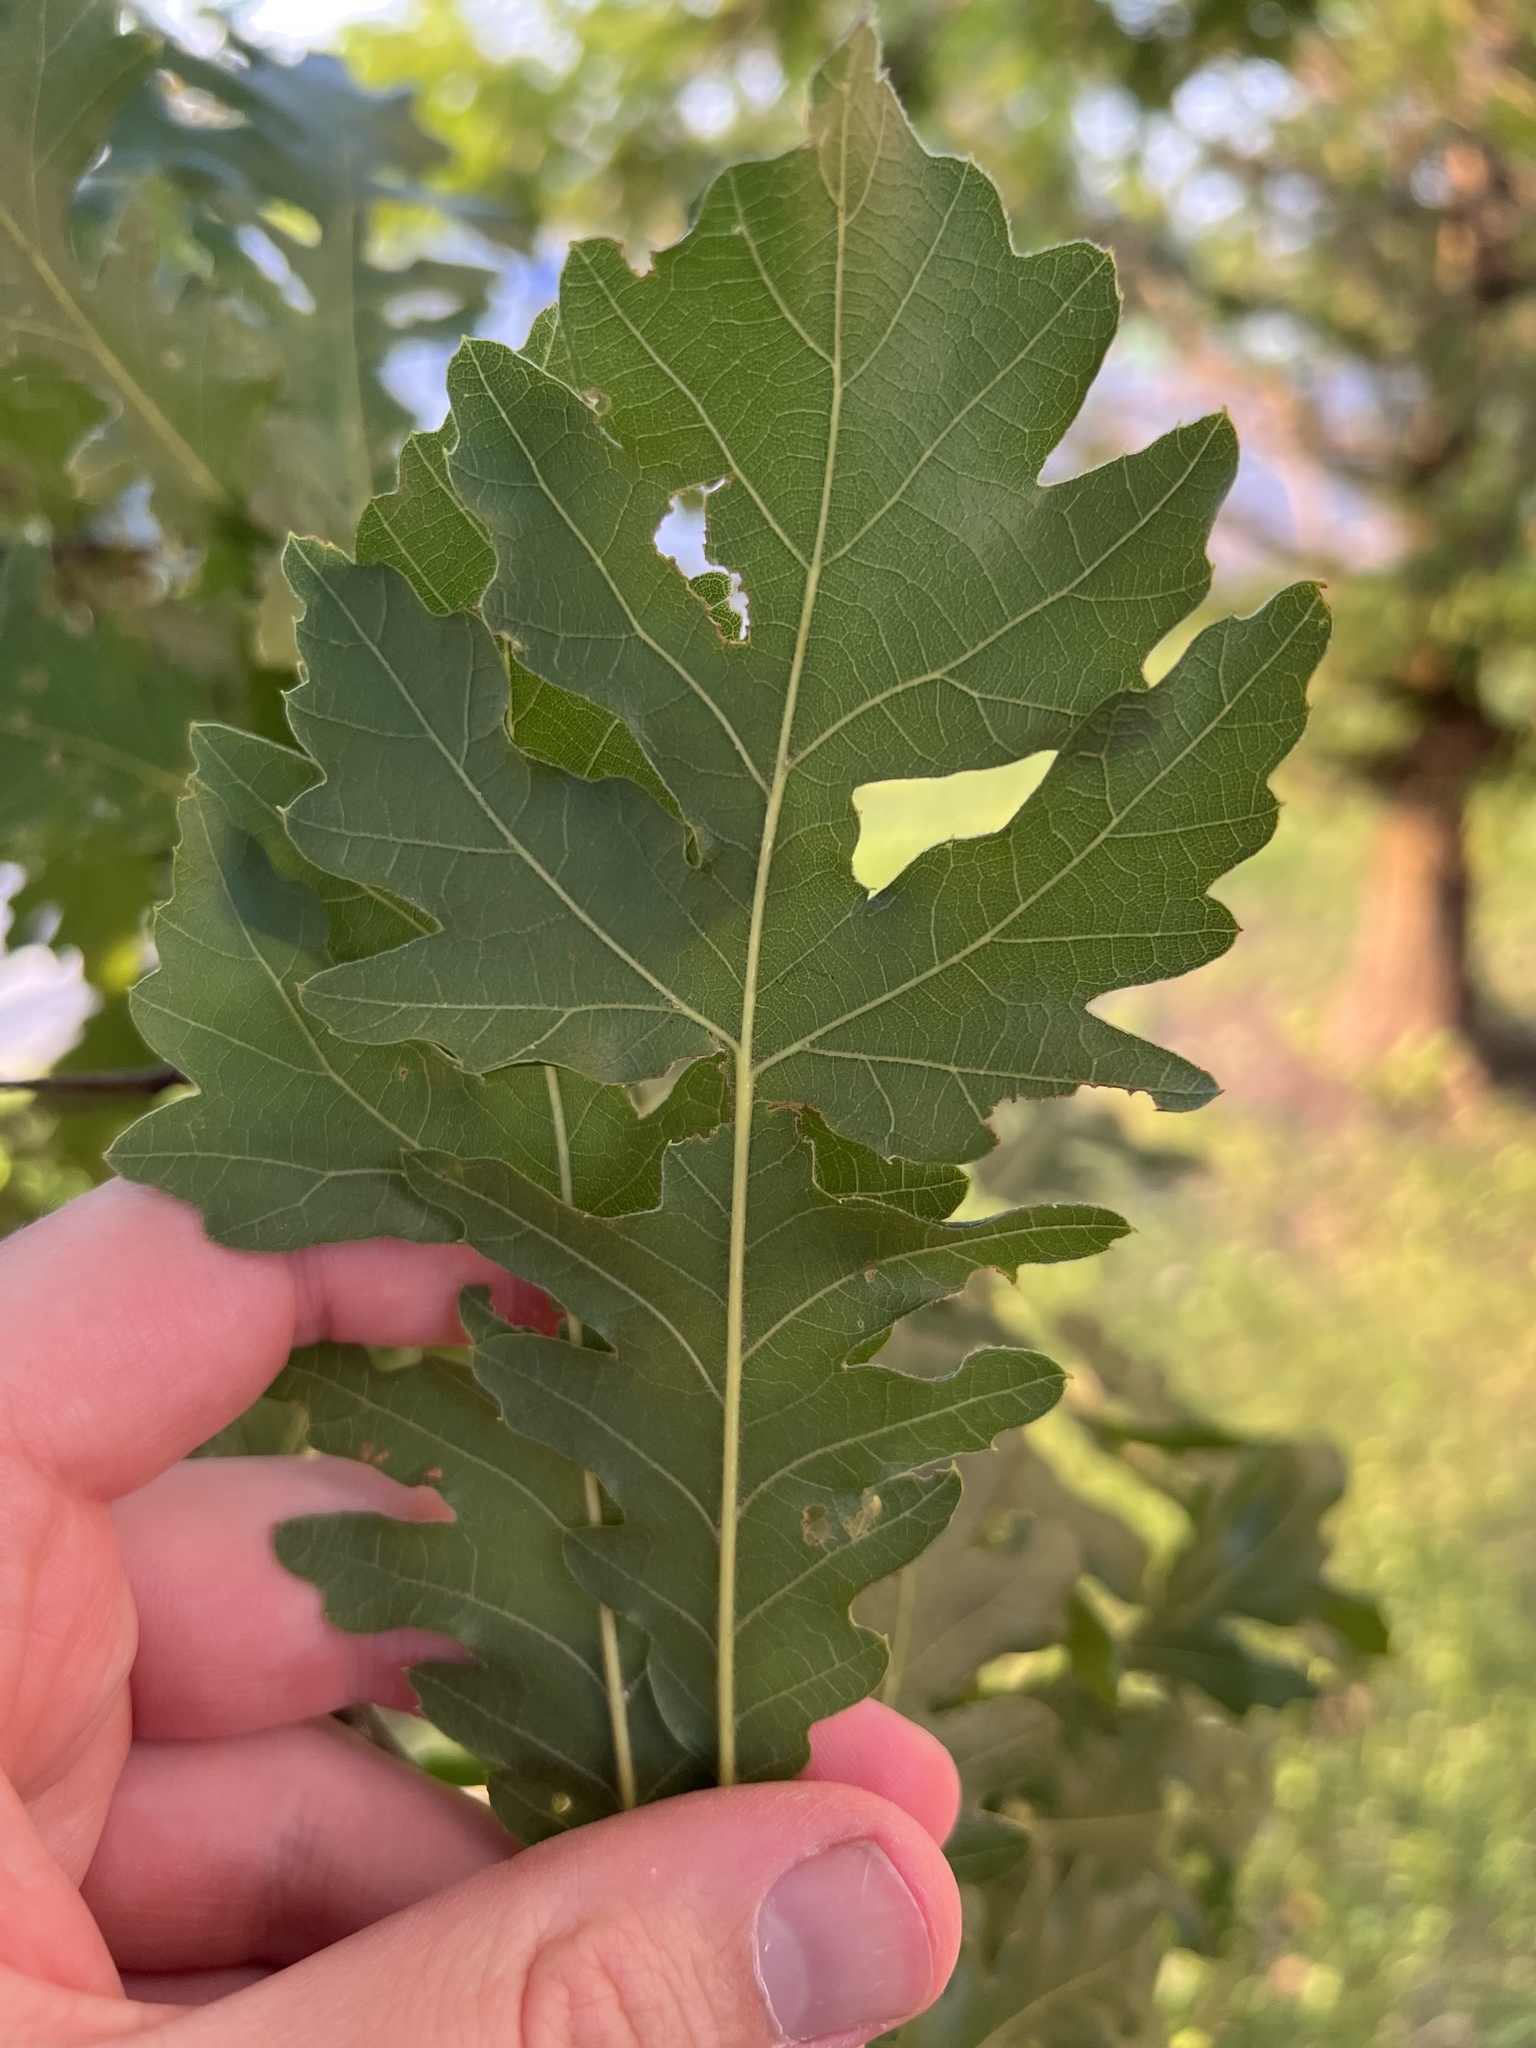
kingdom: Plantae
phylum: Tracheophyta
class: Magnoliopsida
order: Fagales
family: Fagaceae
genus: Quercus
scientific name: Quercus macrocarpa
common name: Bur oak
